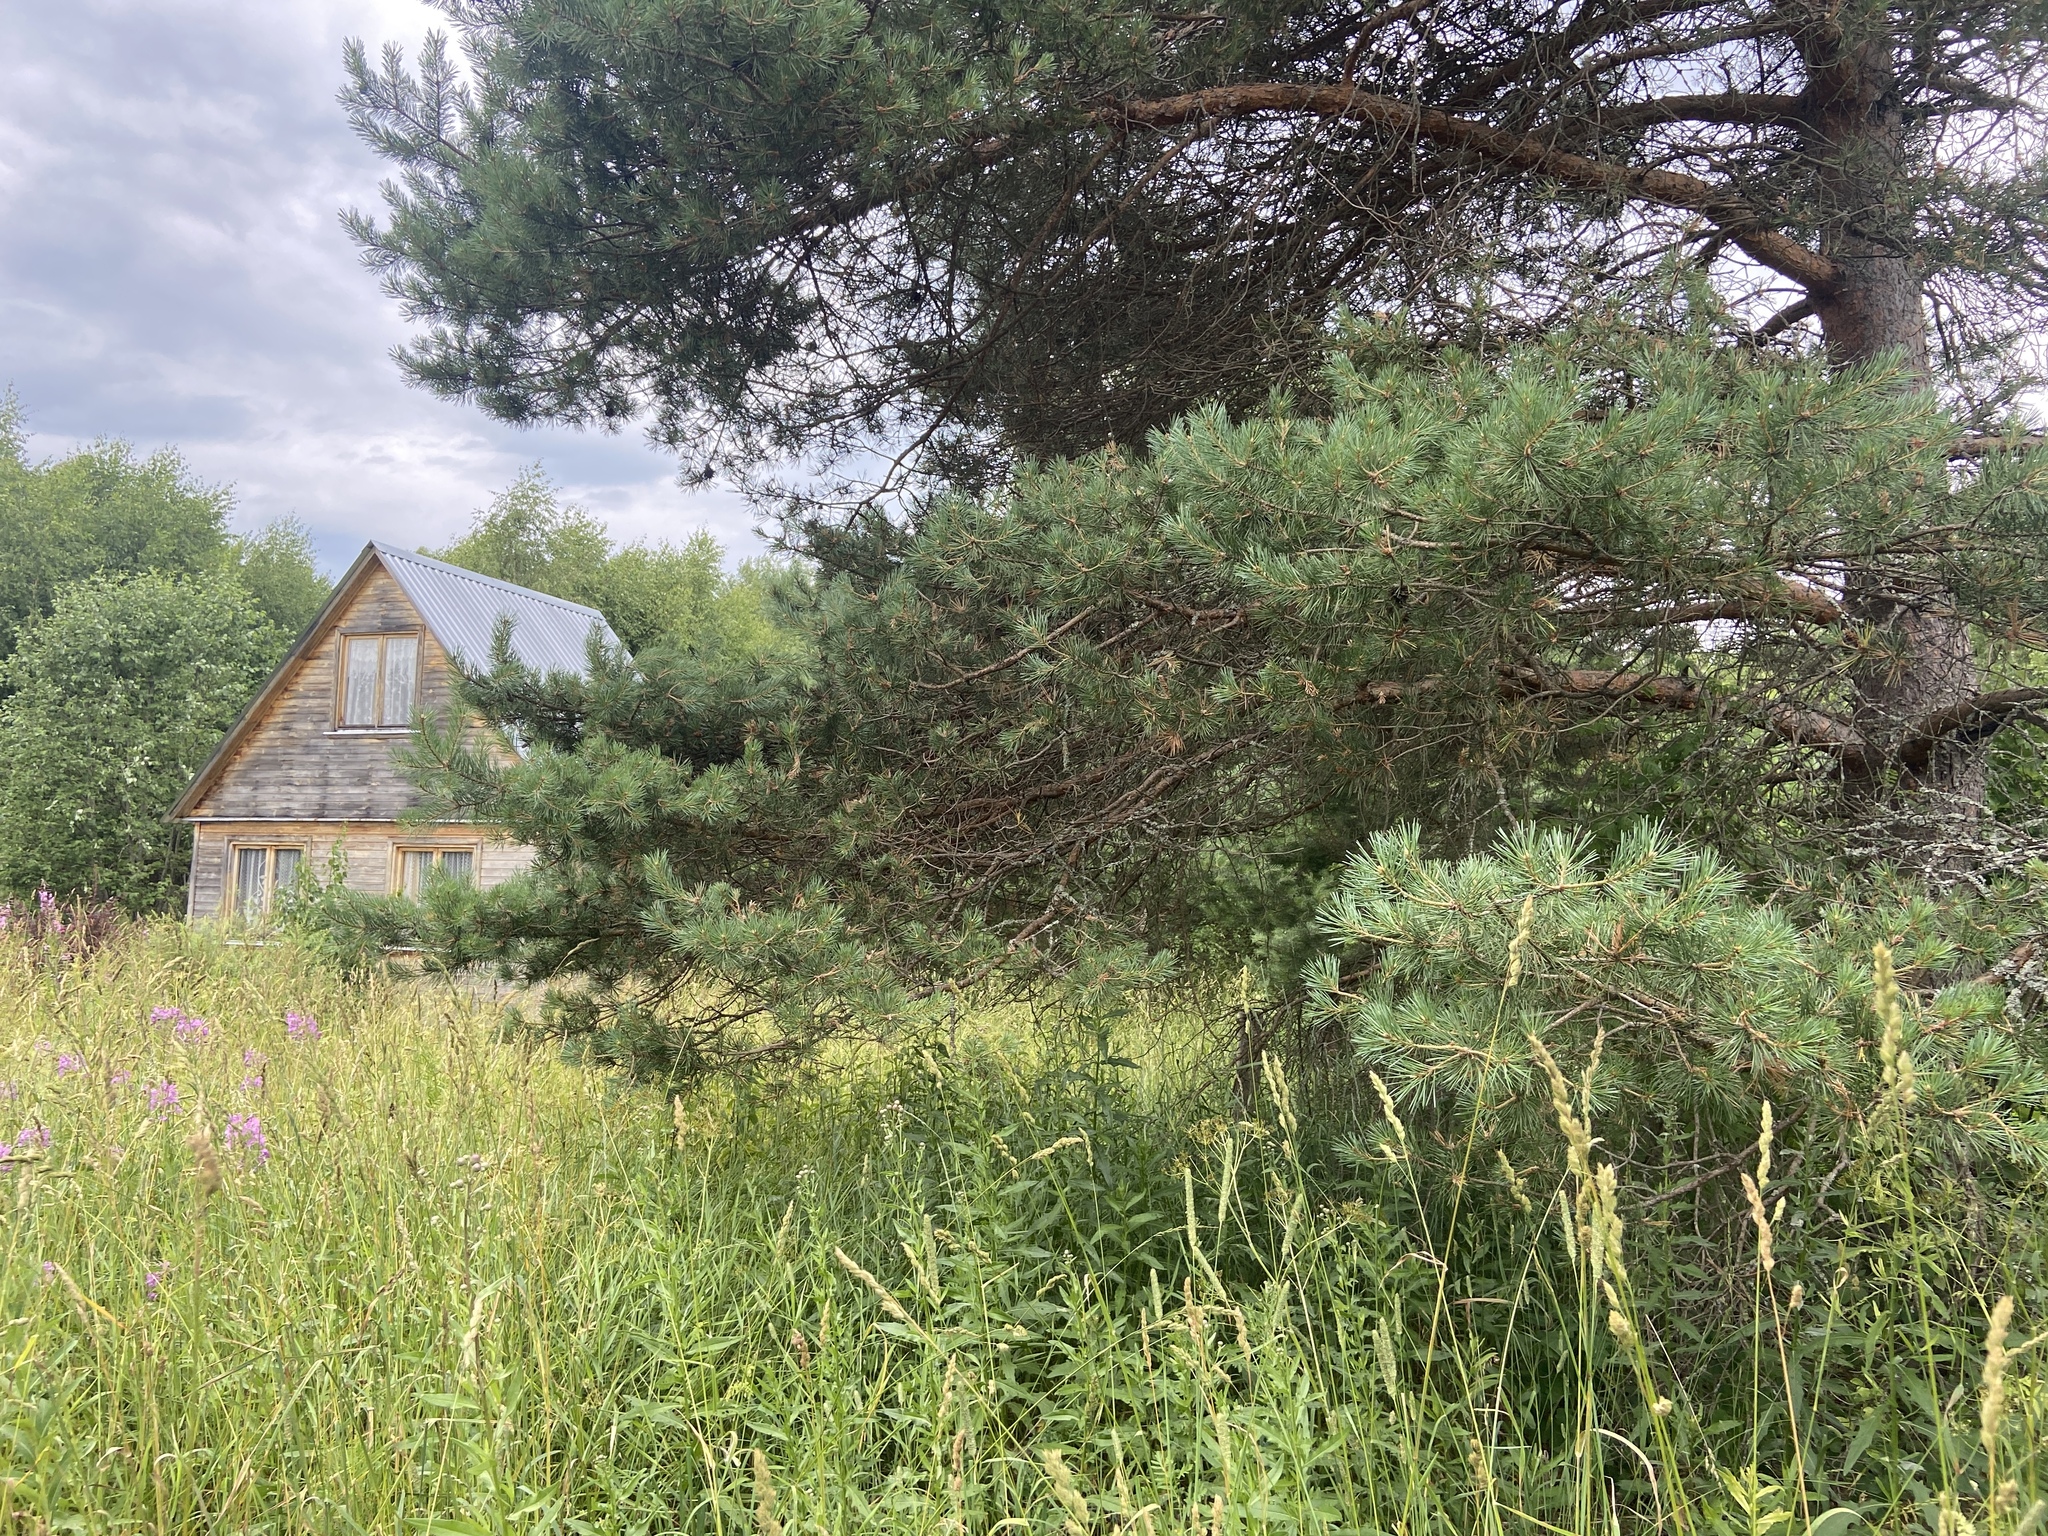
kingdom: Plantae
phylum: Tracheophyta
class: Pinopsida
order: Pinales
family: Pinaceae
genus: Pinus
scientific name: Pinus sylvestris
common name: Scots pine
